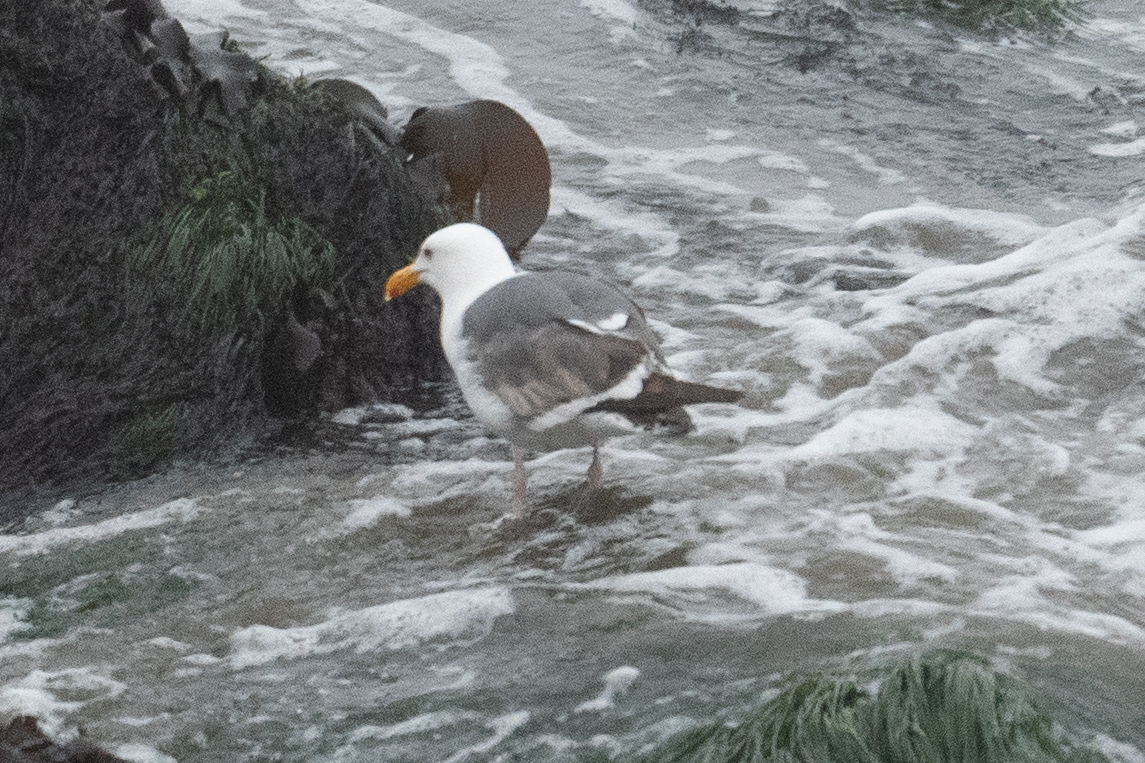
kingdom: Animalia
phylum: Chordata
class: Aves
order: Charadriiformes
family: Laridae
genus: Larus
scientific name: Larus occidentalis
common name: Western gull
